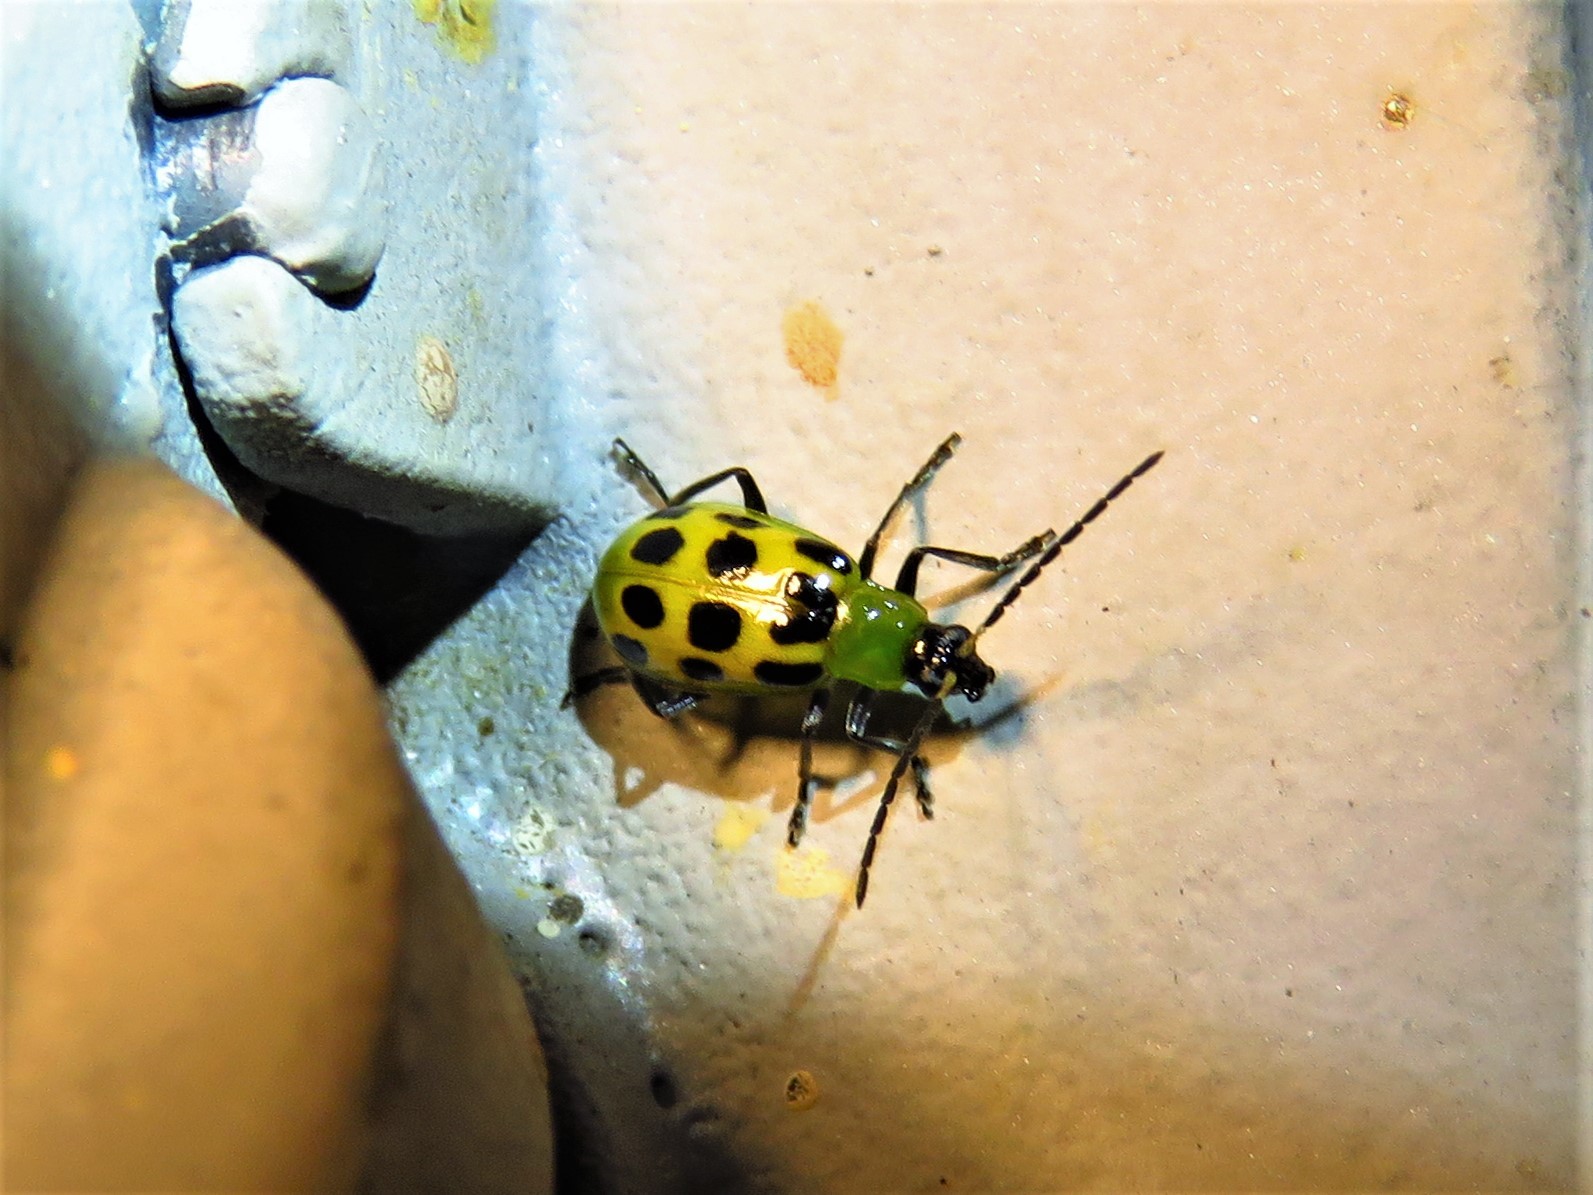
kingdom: Animalia
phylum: Arthropoda
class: Insecta
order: Coleoptera
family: Chrysomelidae
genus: Diabrotica
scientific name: Diabrotica undecimpunctata
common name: Spotted cucumber beetle
